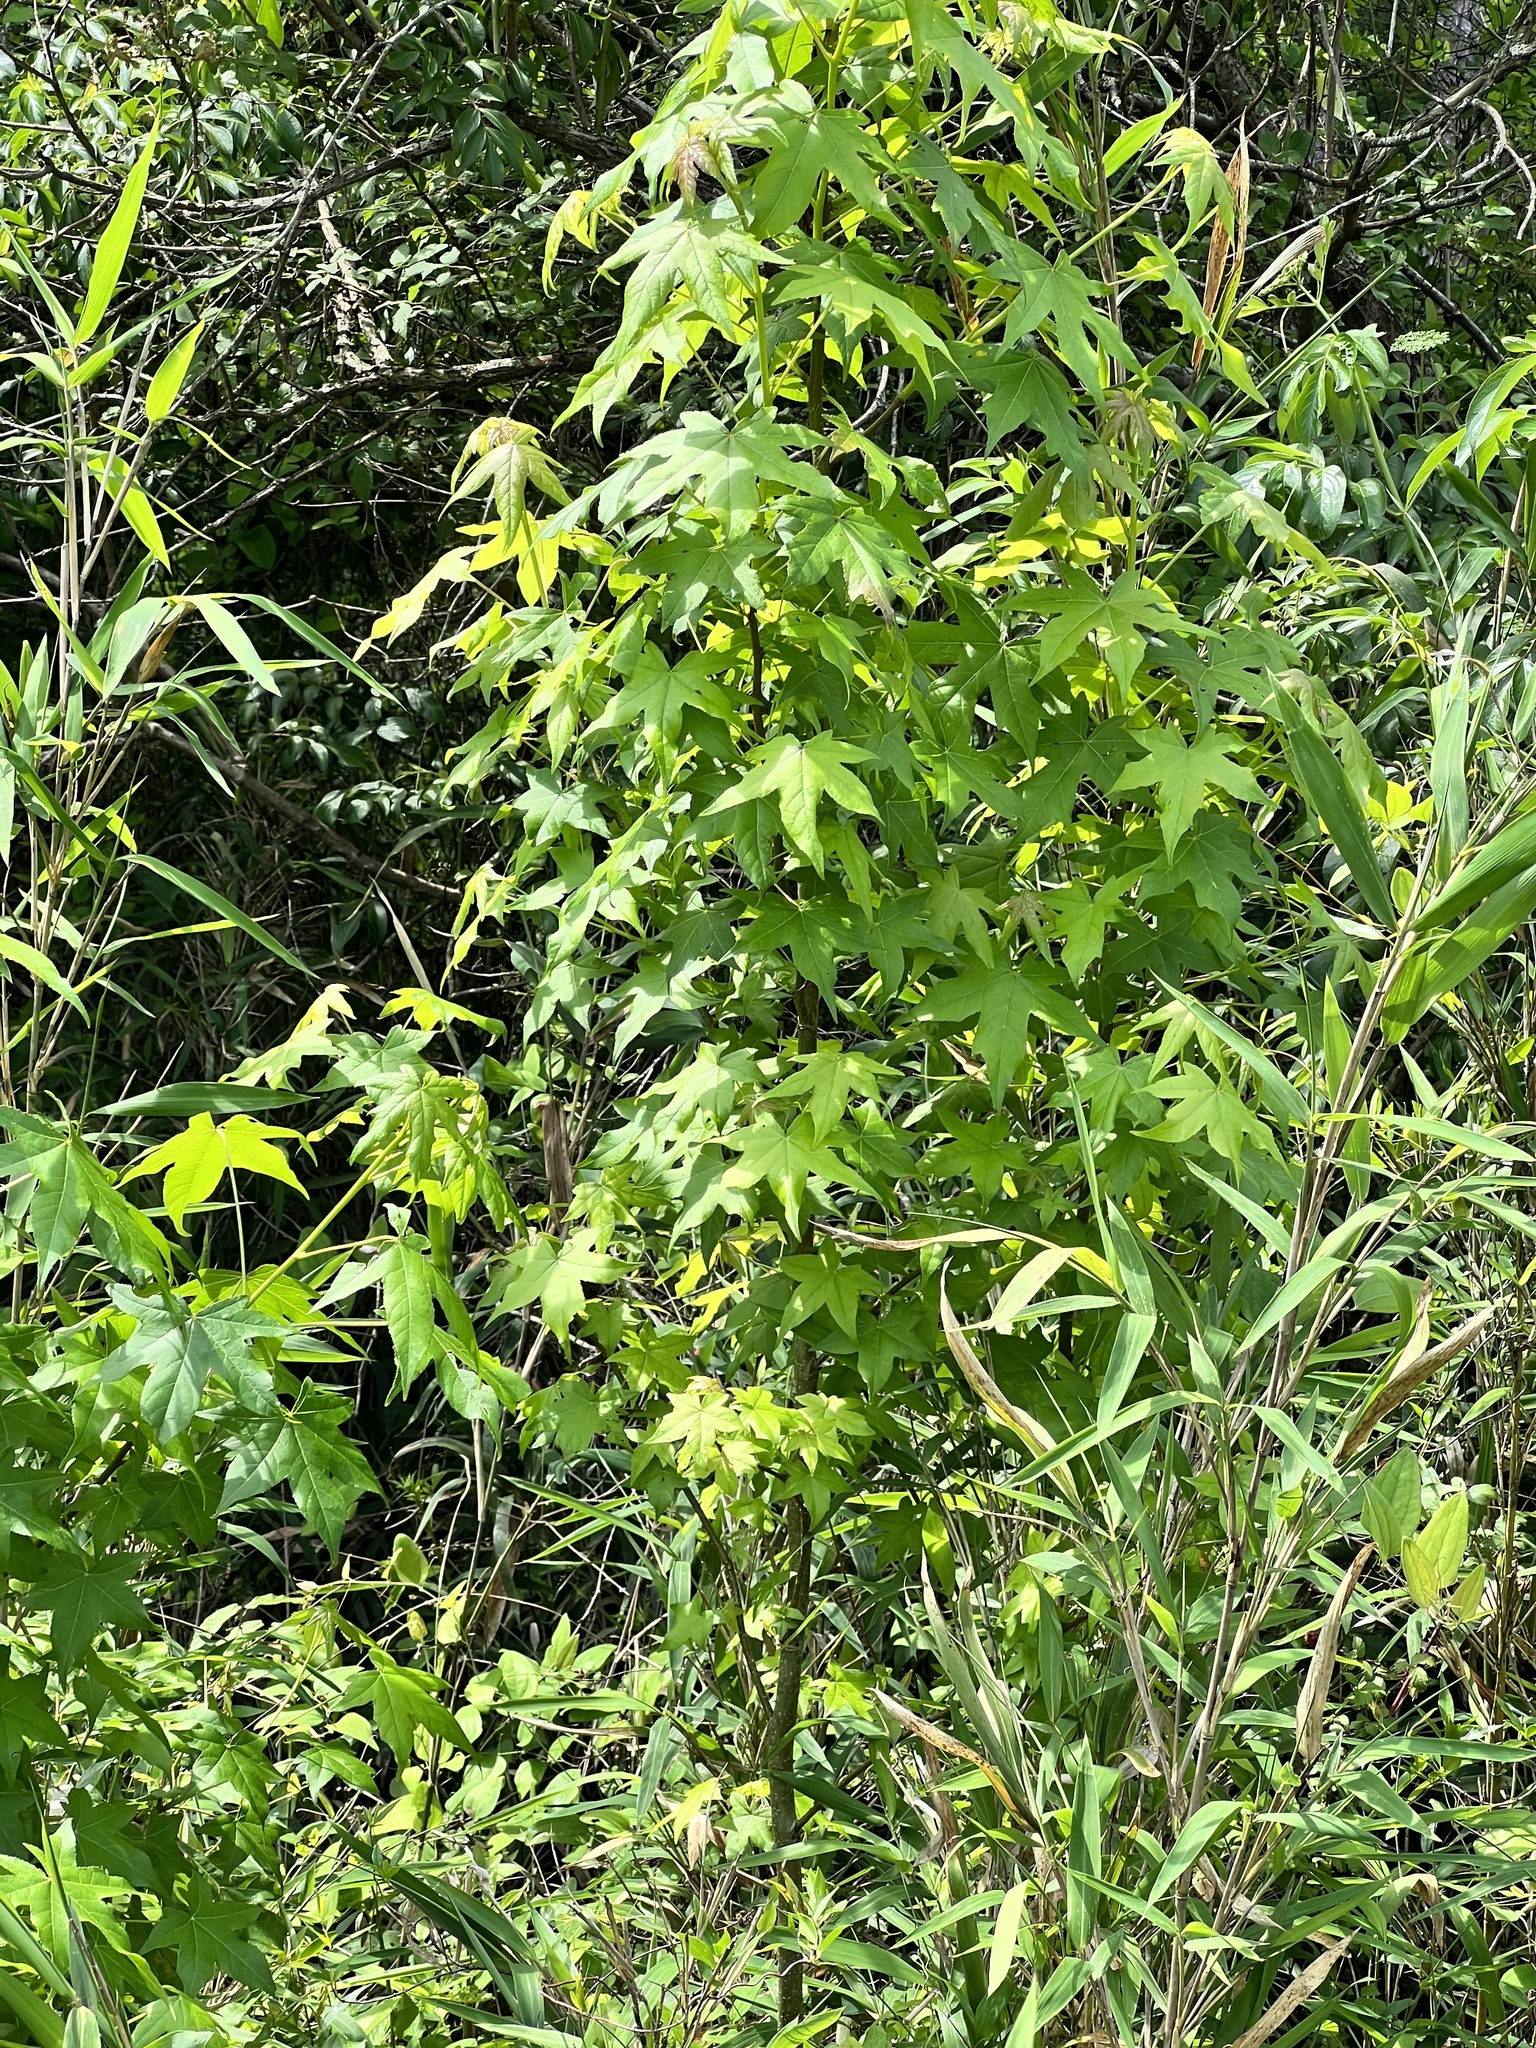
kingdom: Plantae
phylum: Tracheophyta
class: Magnoliopsida
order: Saxifragales
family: Altingiaceae
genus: Liquidambar
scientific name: Liquidambar styraciflua
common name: Sweet gum
